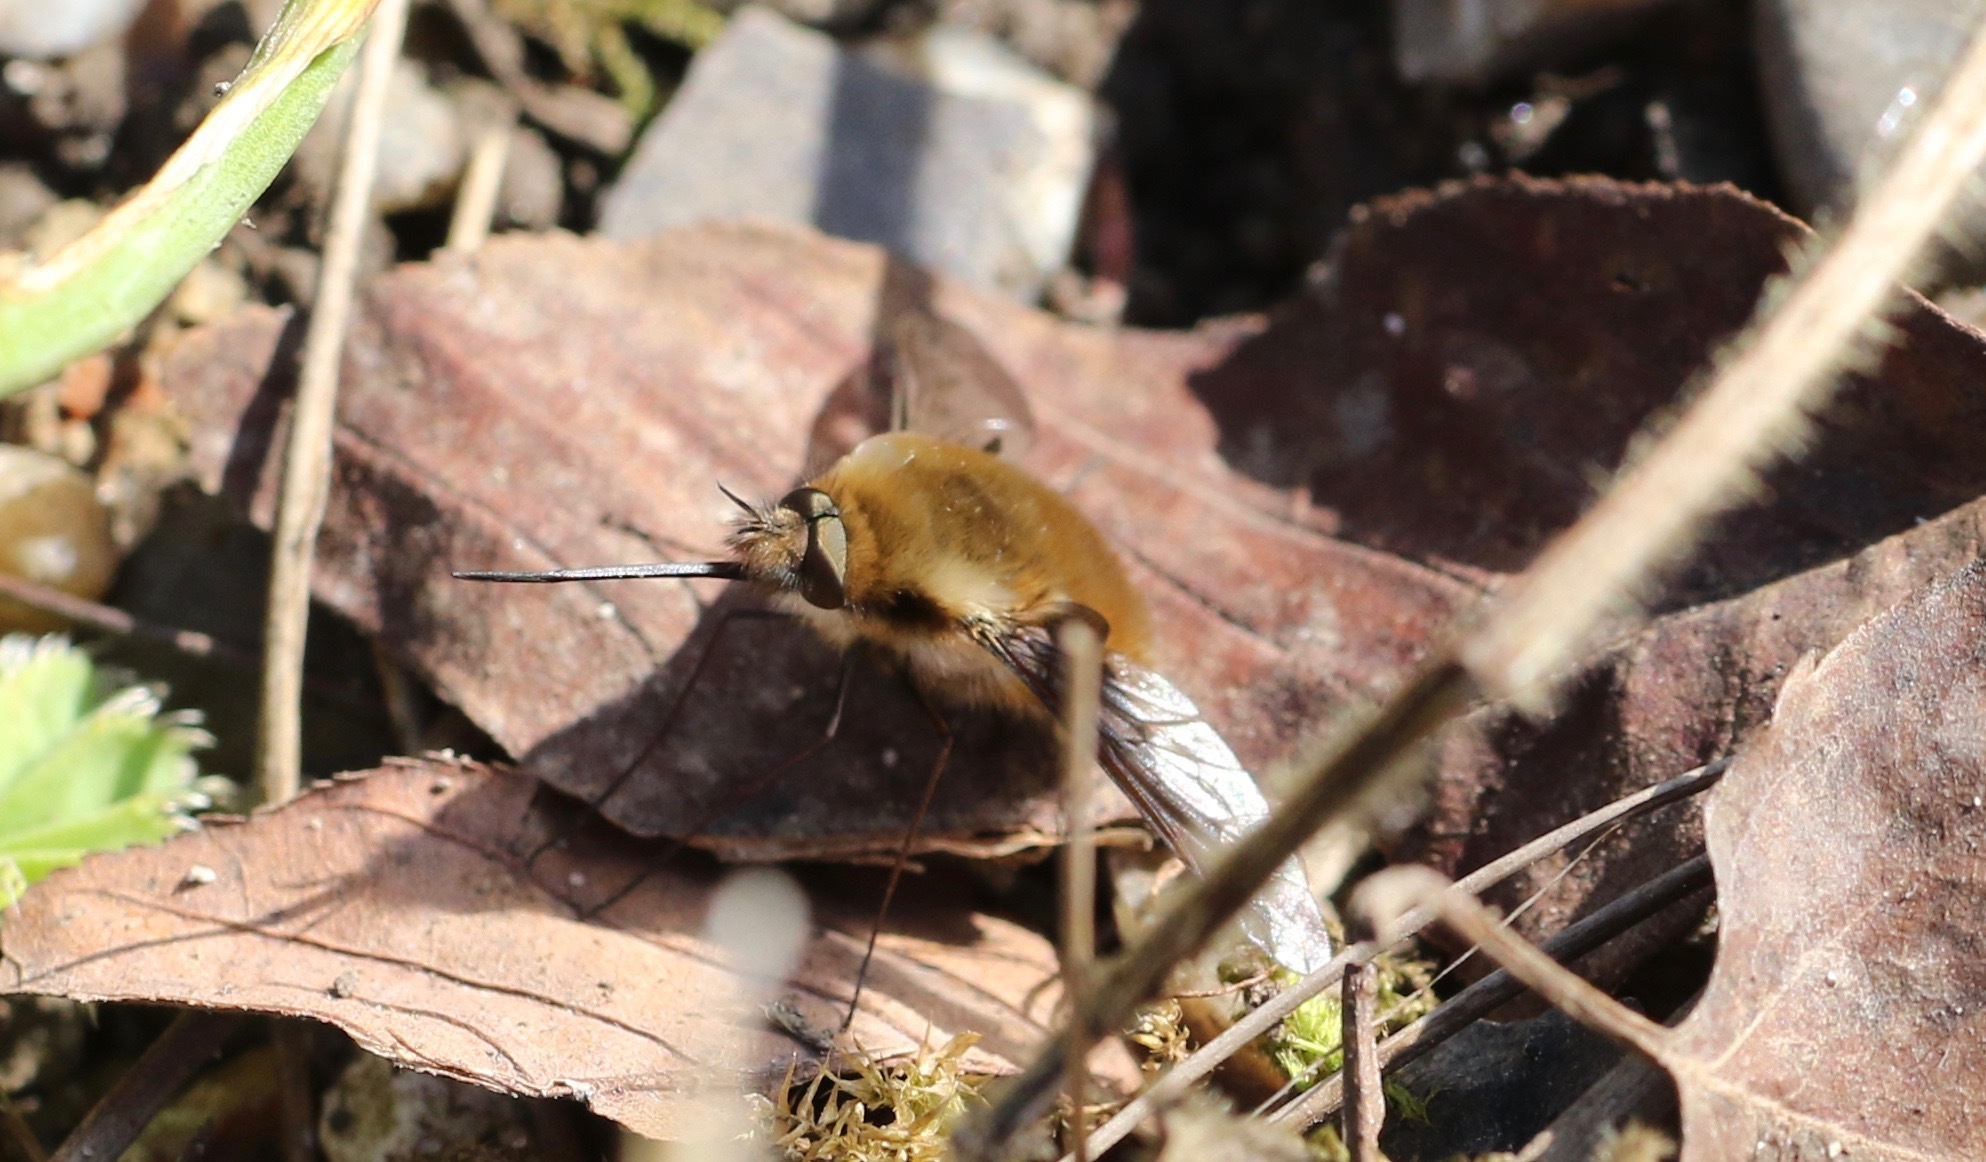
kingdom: Animalia
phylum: Arthropoda
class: Insecta
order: Diptera
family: Bombyliidae
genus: Bombylius
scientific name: Bombylius major
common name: Bee fly
